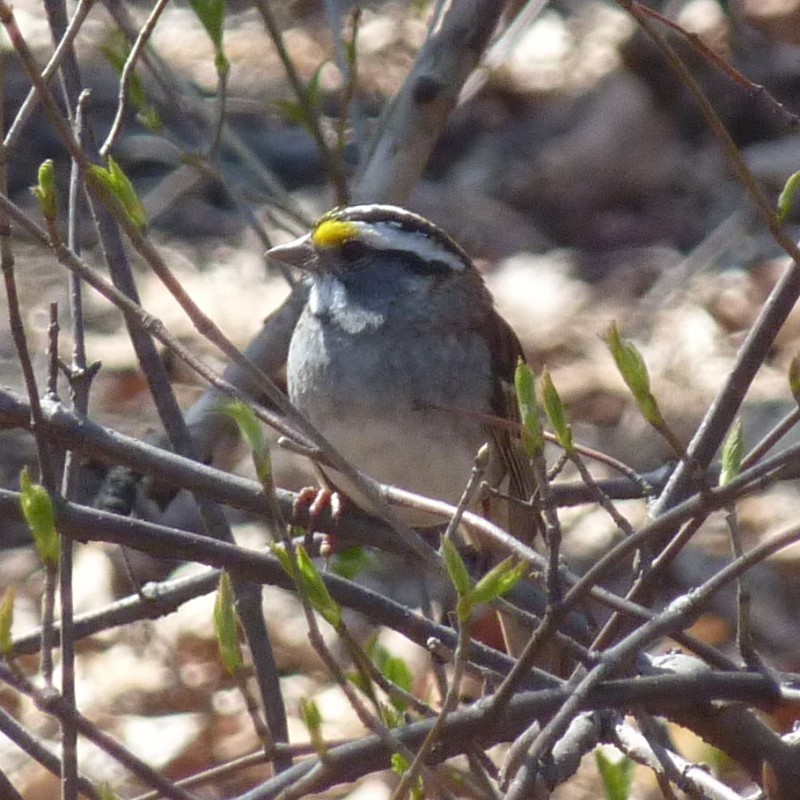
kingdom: Animalia
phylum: Chordata
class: Aves
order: Passeriformes
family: Passerellidae
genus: Zonotrichia
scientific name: Zonotrichia albicollis
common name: White-throated sparrow
